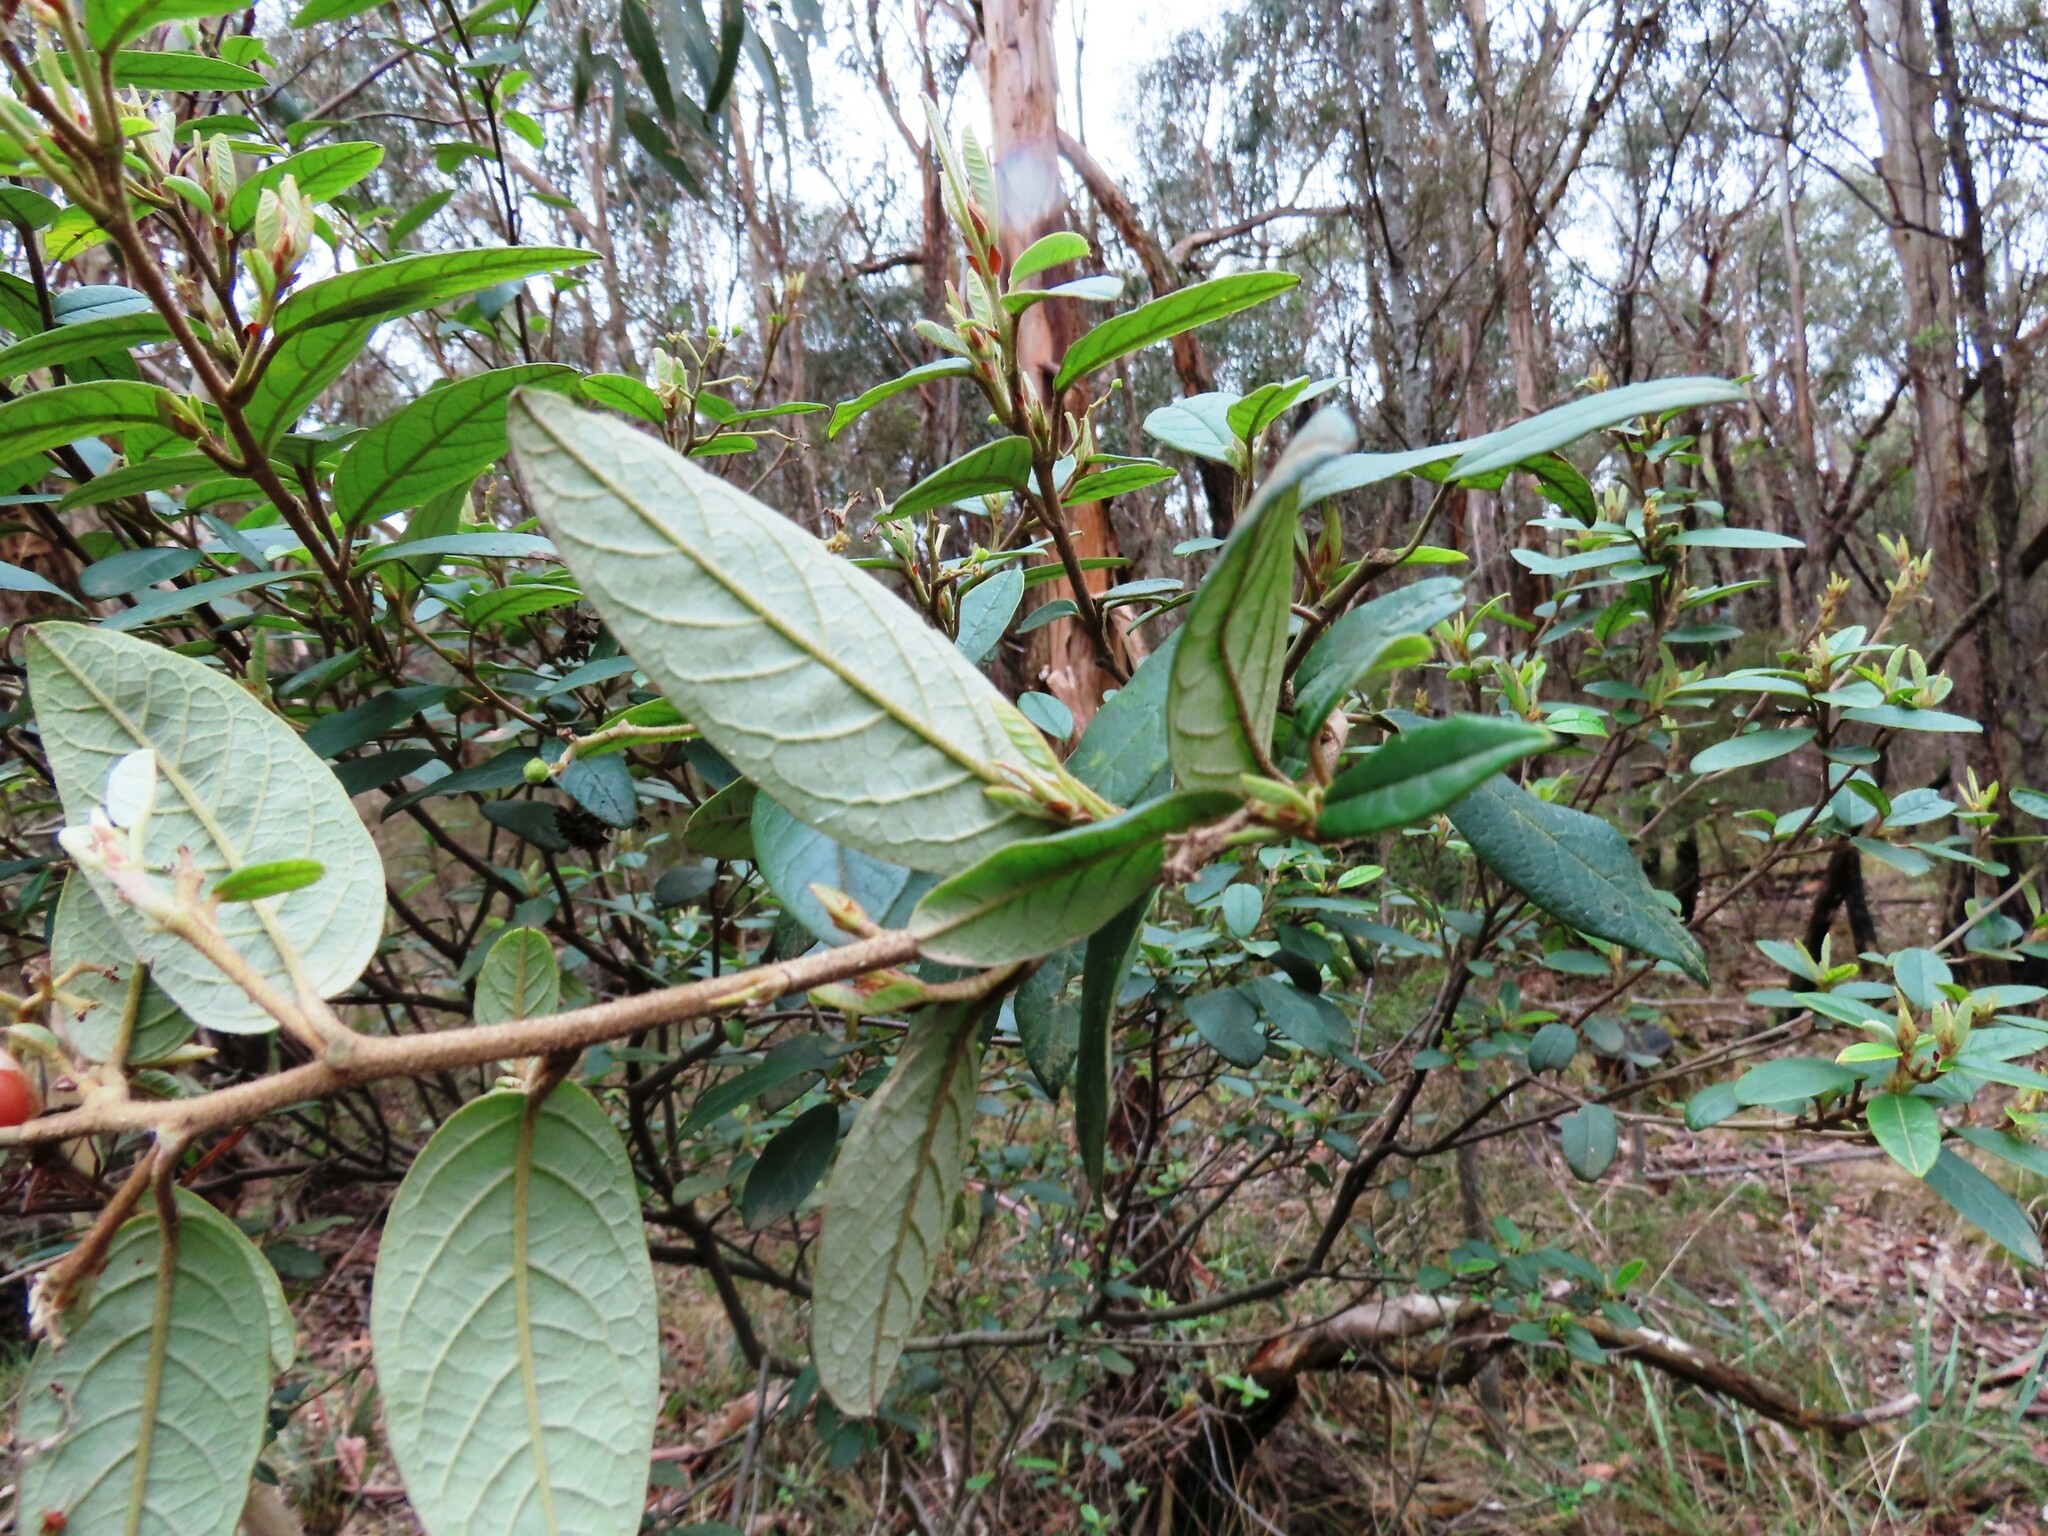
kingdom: Plantae
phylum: Tracheophyta
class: Magnoliopsida
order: Rosales
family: Rhamnaceae
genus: Pomaderris
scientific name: Pomaderris elliptica
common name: Yellow-dogwood
